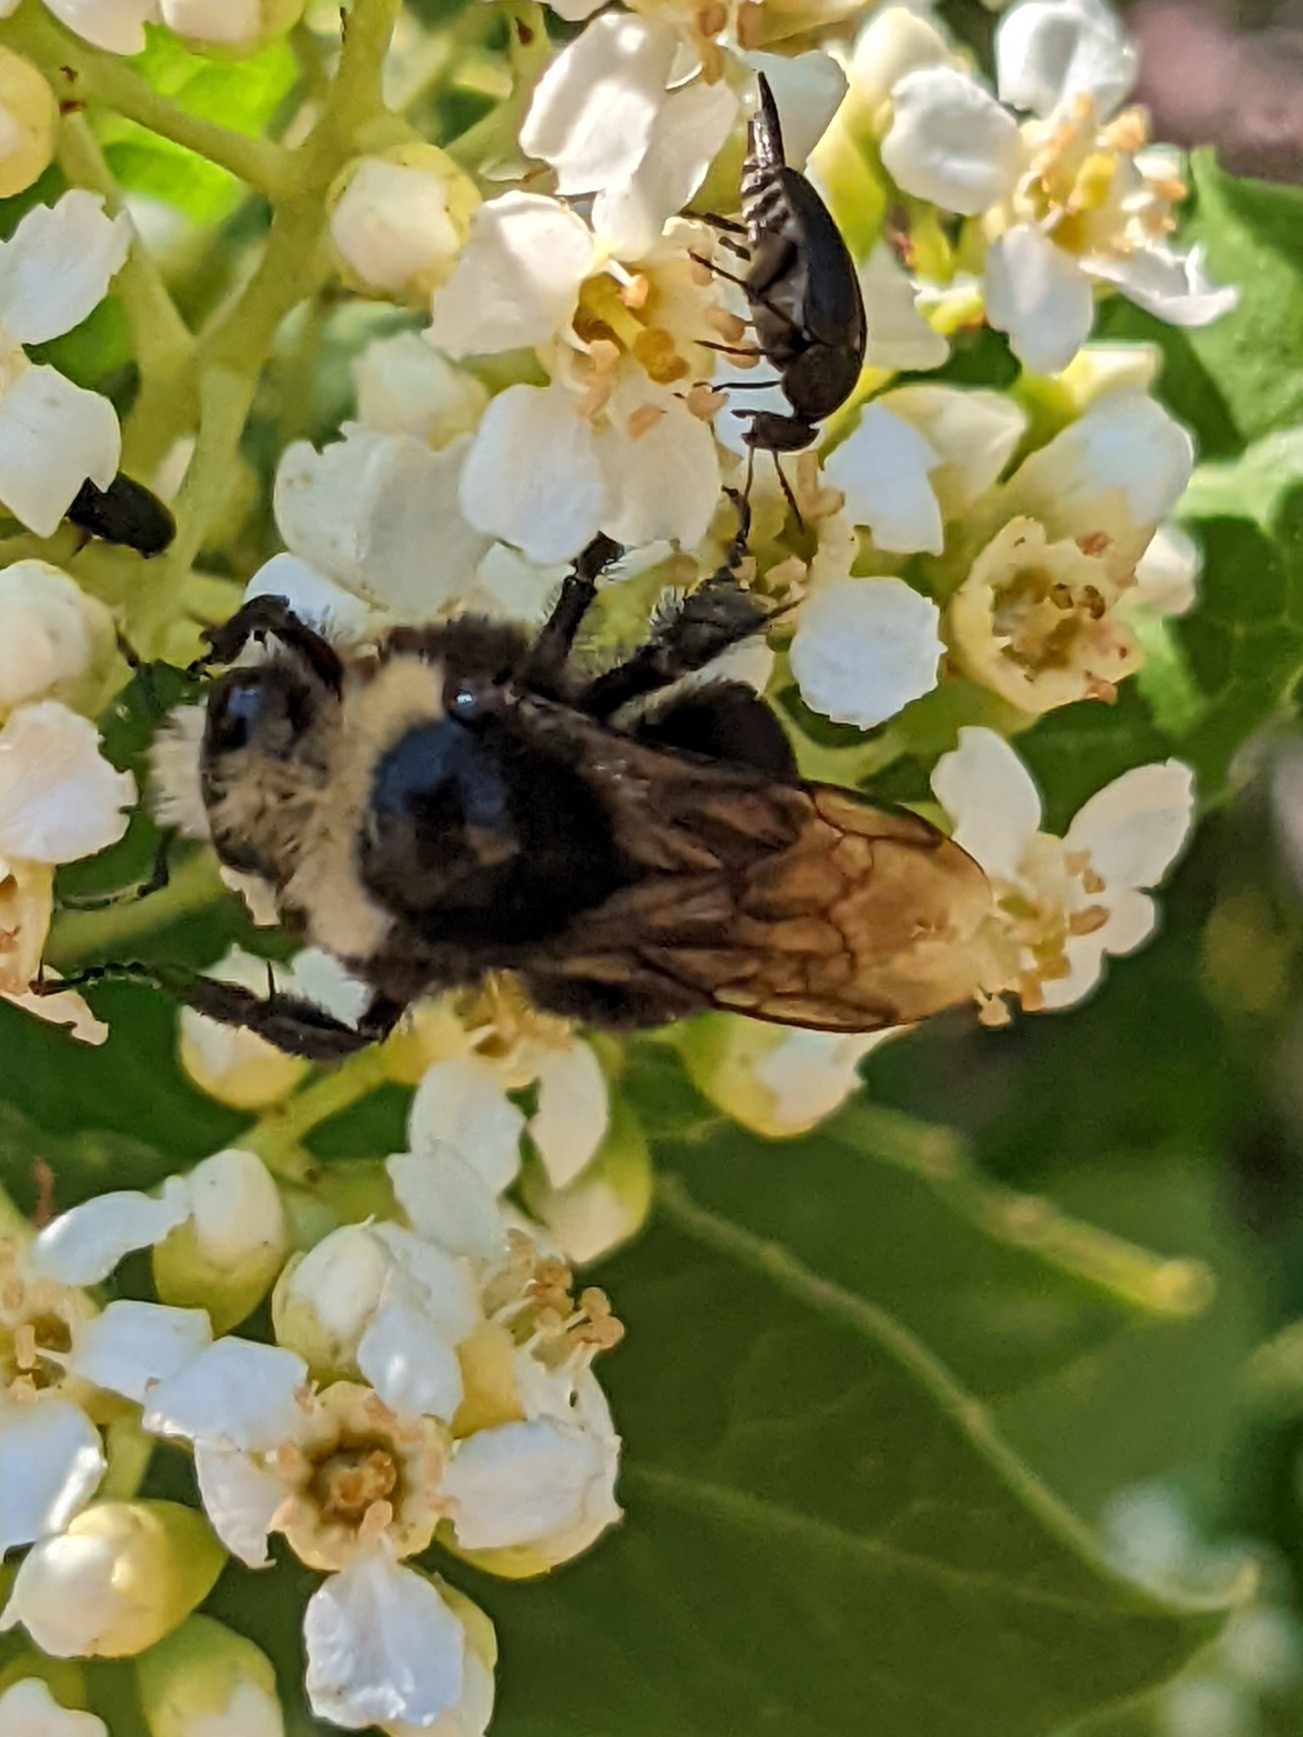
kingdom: Animalia
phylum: Arthropoda
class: Insecta
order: Hymenoptera
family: Apidae
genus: Bombus
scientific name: Bombus vosnesenskii
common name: Vosnesensky bumble bee
